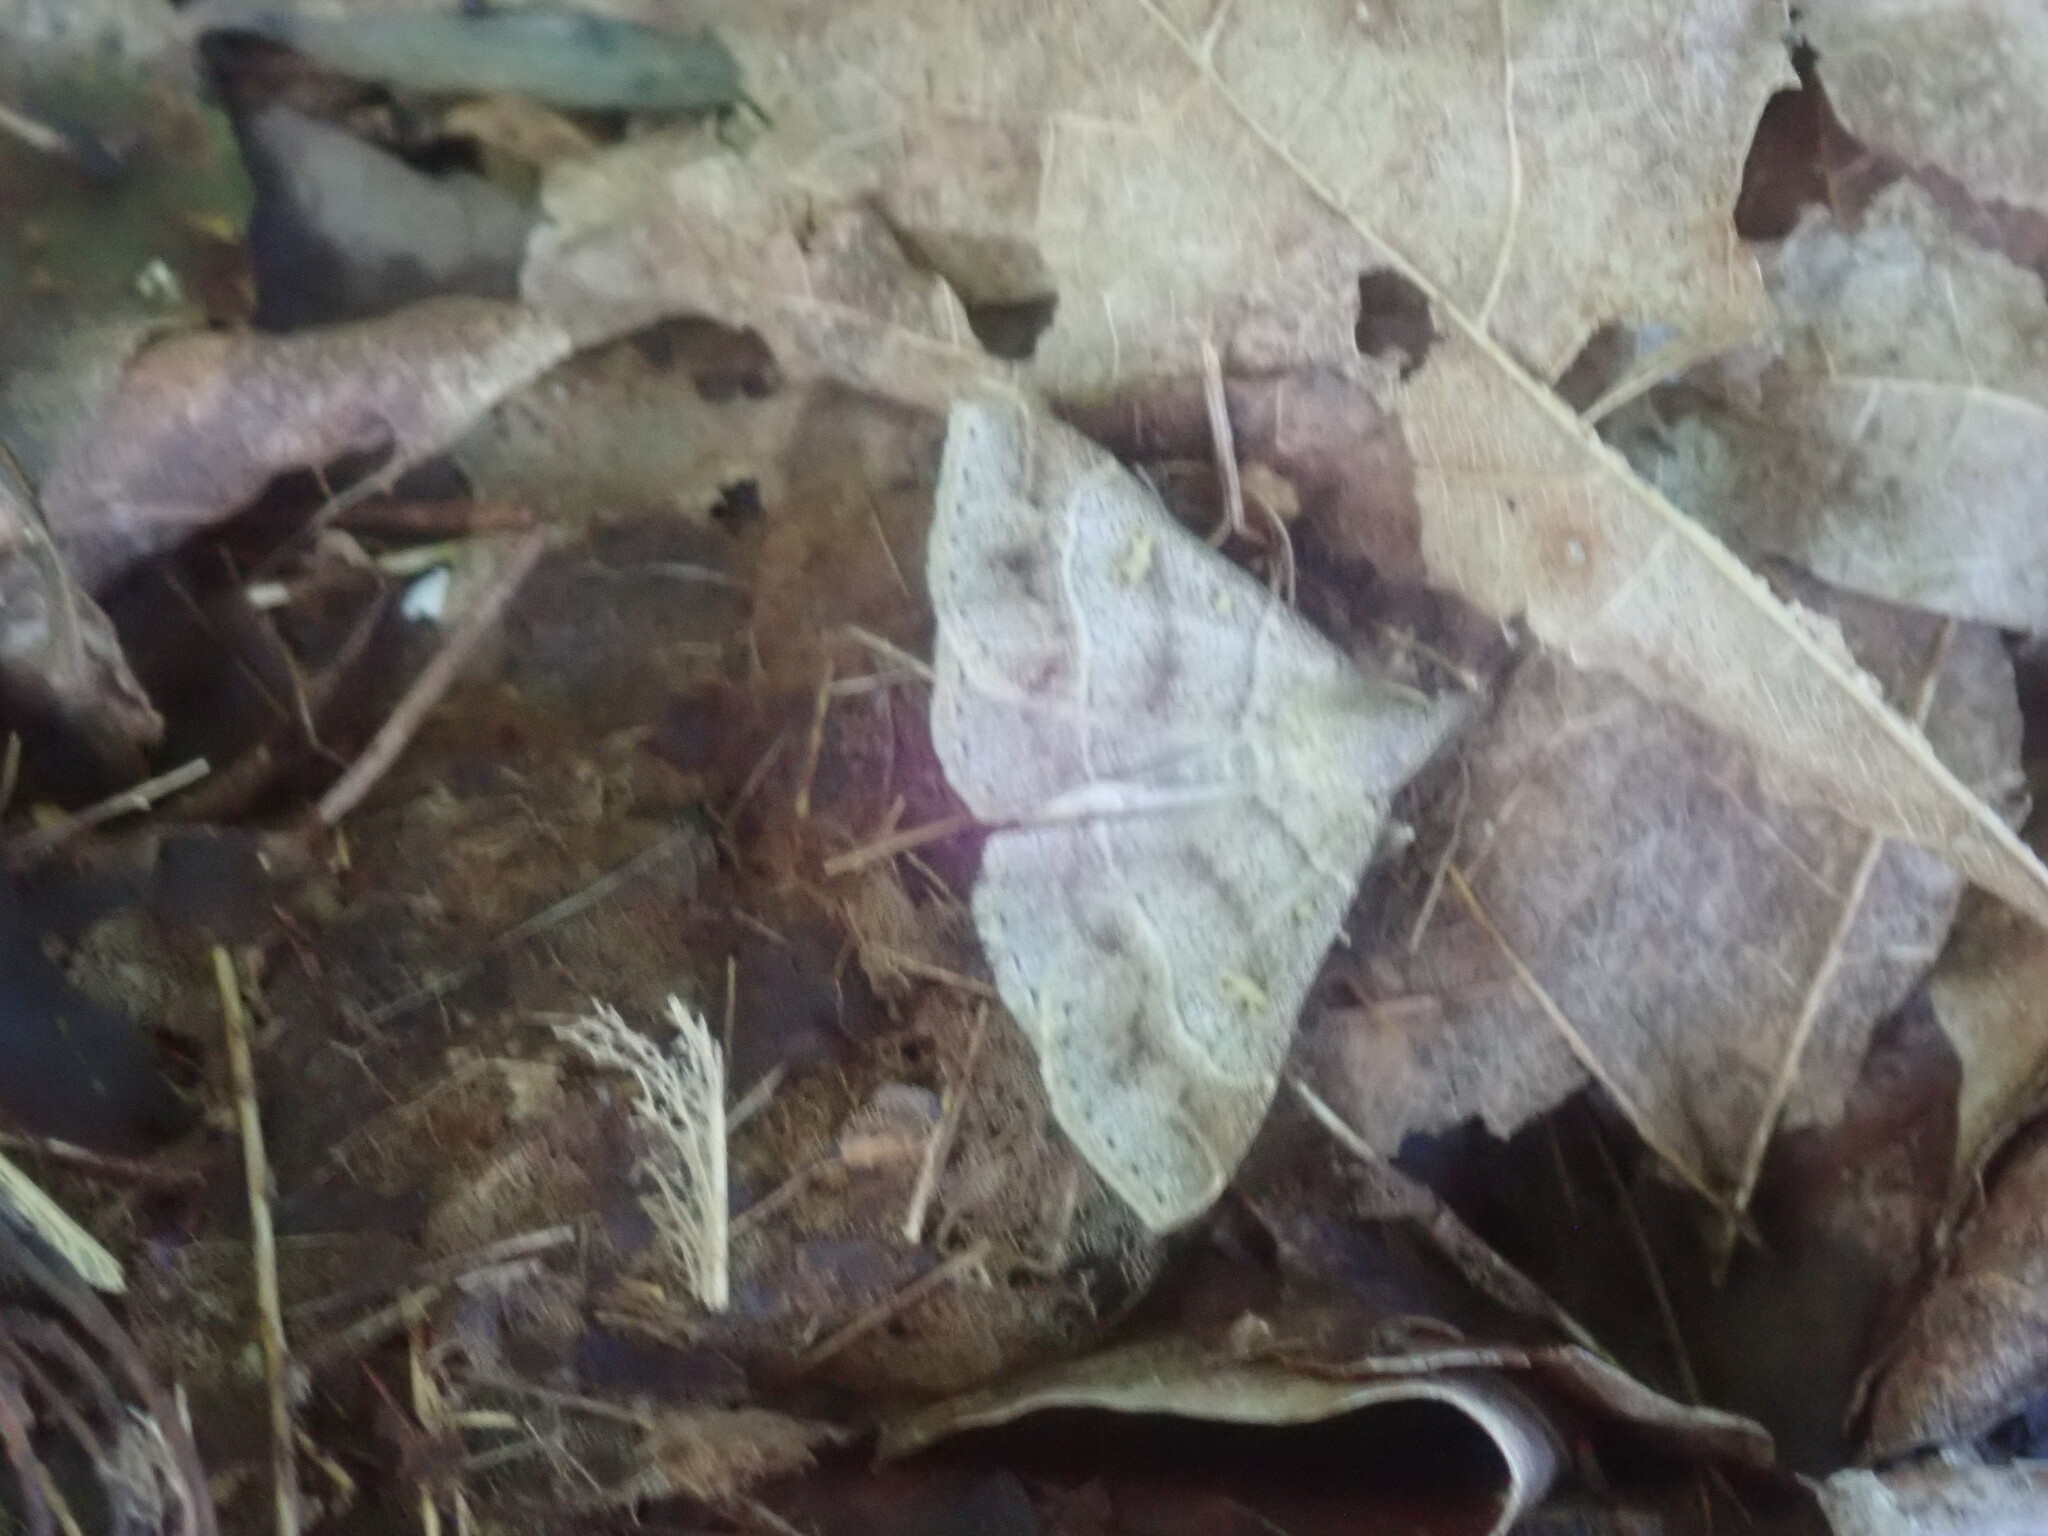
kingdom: Animalia
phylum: Arthropoda
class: Insecta
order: Lepidoptera
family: Erebidae
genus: Renia
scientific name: Renia flavipunctalis
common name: Yellow-spotted renia moth
